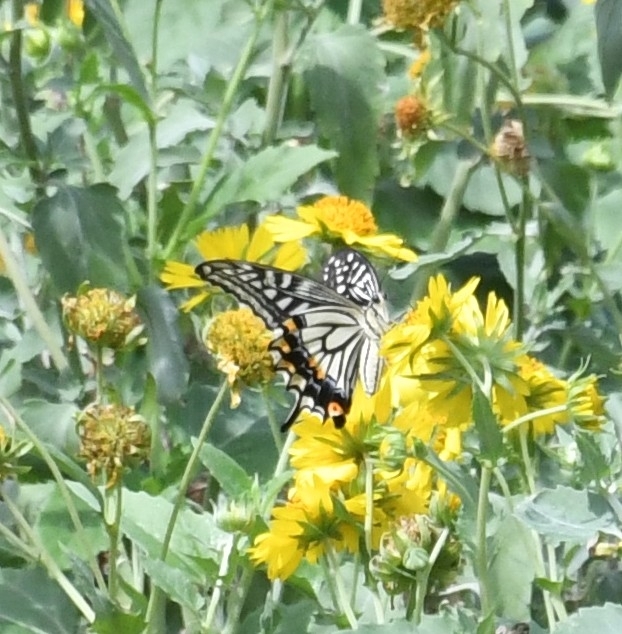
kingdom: Animalia
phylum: Arthropoda
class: Insecta
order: Lepidoptera
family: Papilionidae
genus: Papilio
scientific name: Papilio xuthus
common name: Asian swallowtail
